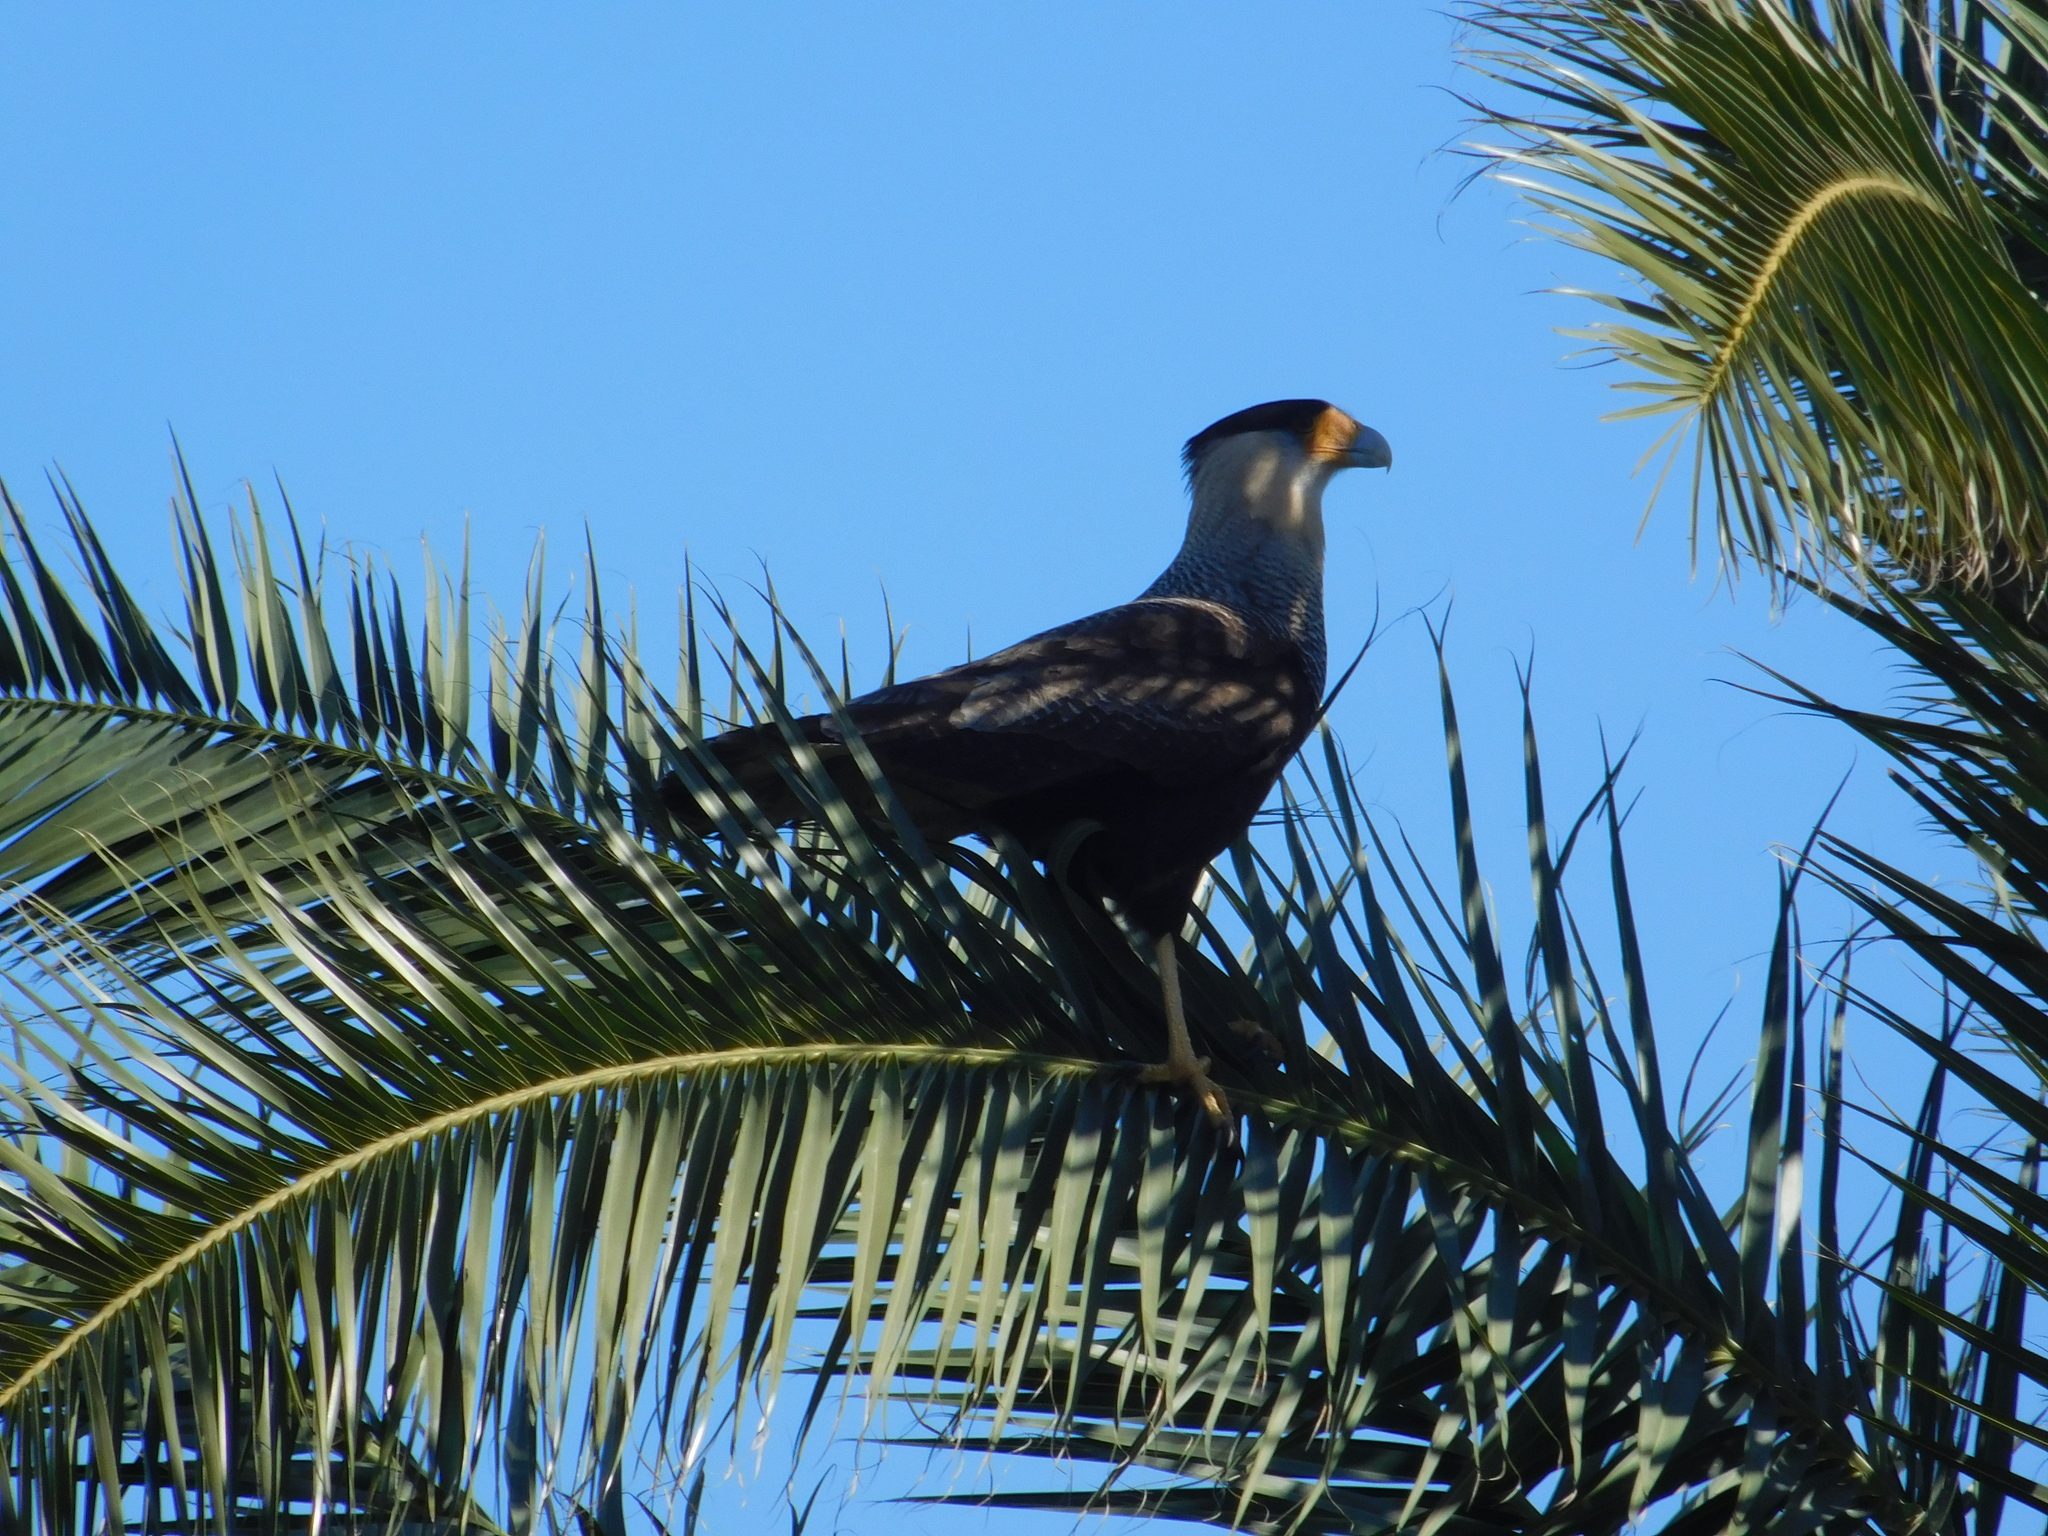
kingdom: Animalia
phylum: Chordata
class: Aves
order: Falconiformes
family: Falconidae
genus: Caracara
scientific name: Caracara plancus
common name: Southern caracara
